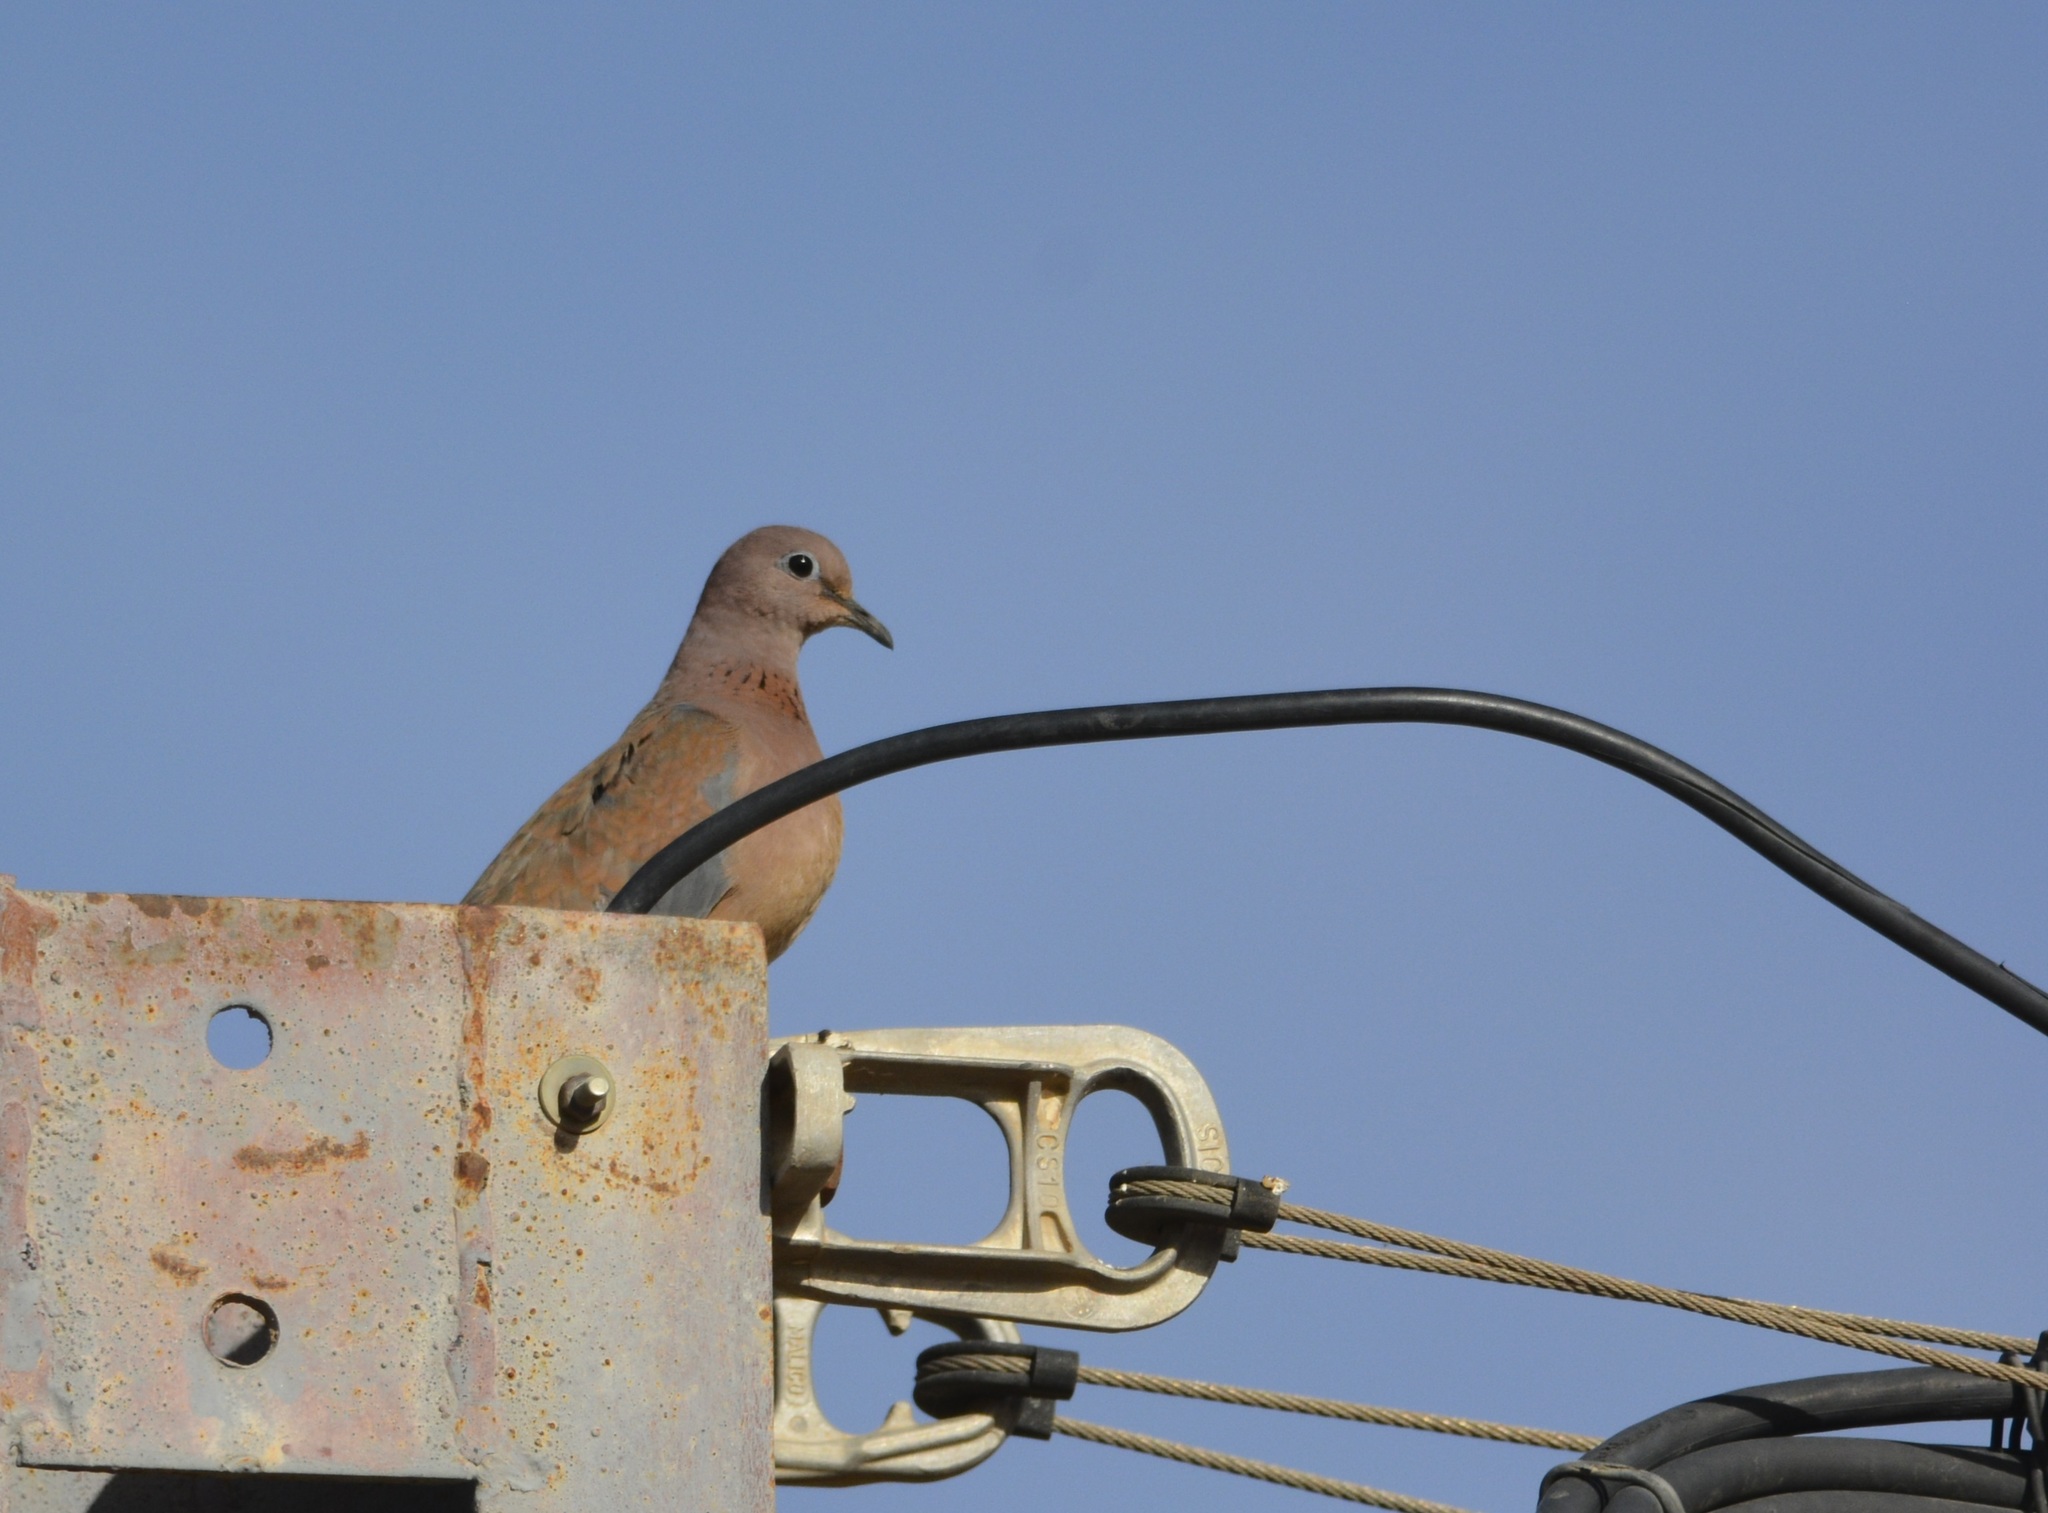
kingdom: Animalia
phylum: Chordata
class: Aves
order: Columbiformes
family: Columbidae
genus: Spilopelia
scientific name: Spilopelia senegalensis
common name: Laughing dove
